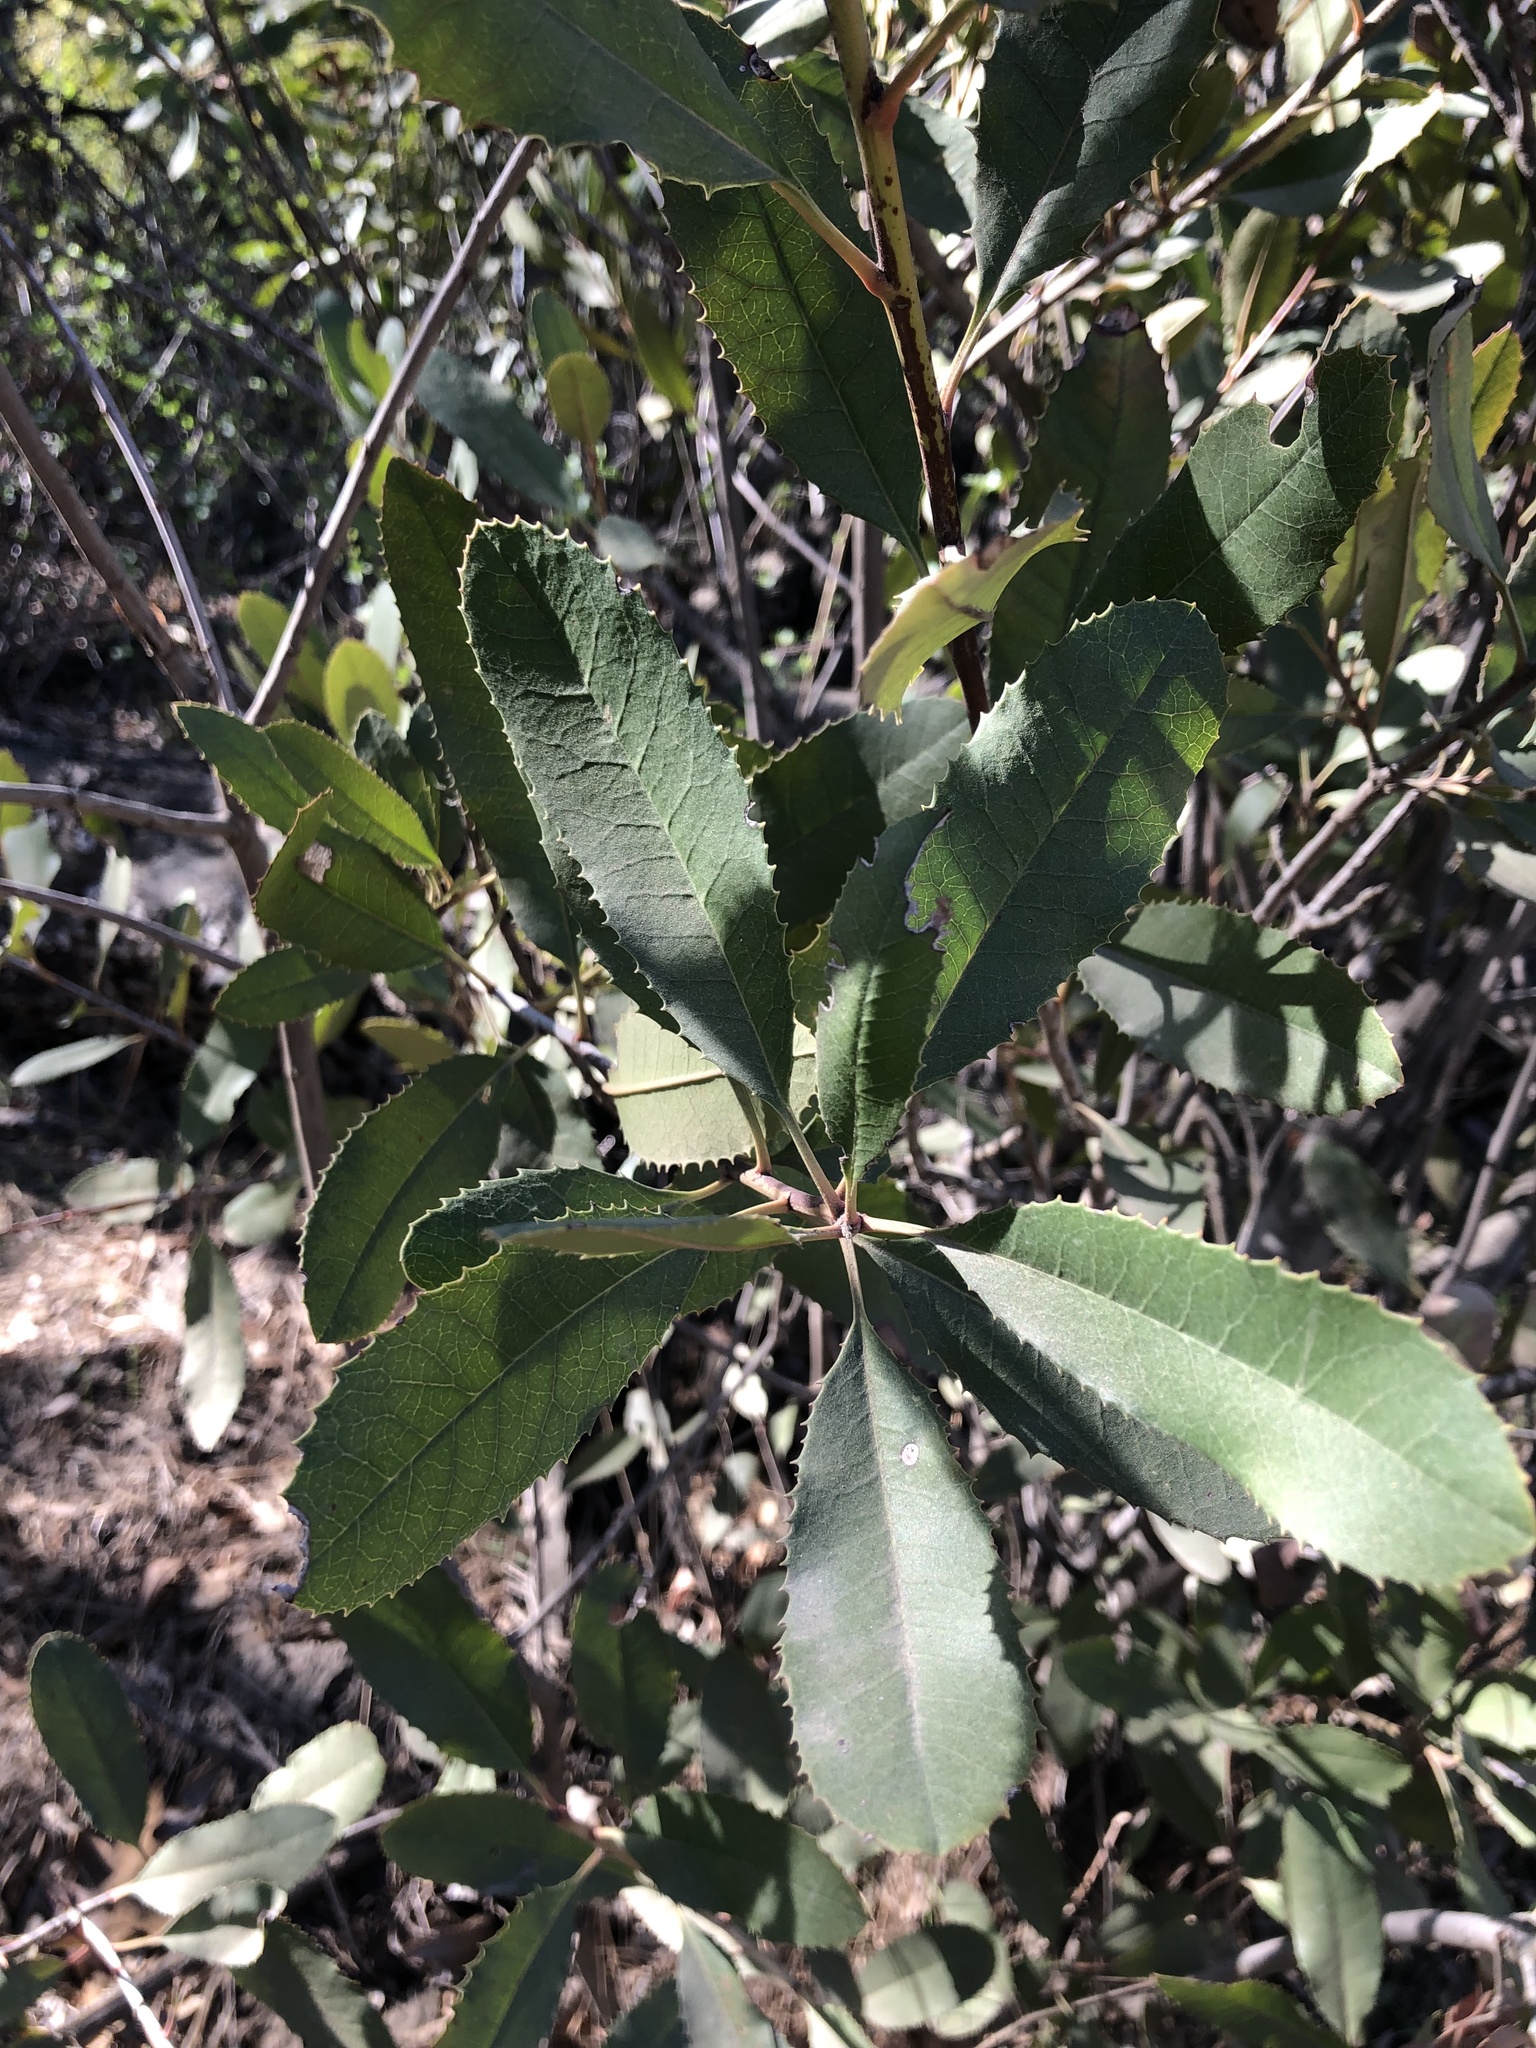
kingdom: Plantae
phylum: Tracheophyta
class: Magnoliopsida
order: Rosales
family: Rosaceae
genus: Heteromeles
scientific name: Heteromeles arbutifolia
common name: California-holly
